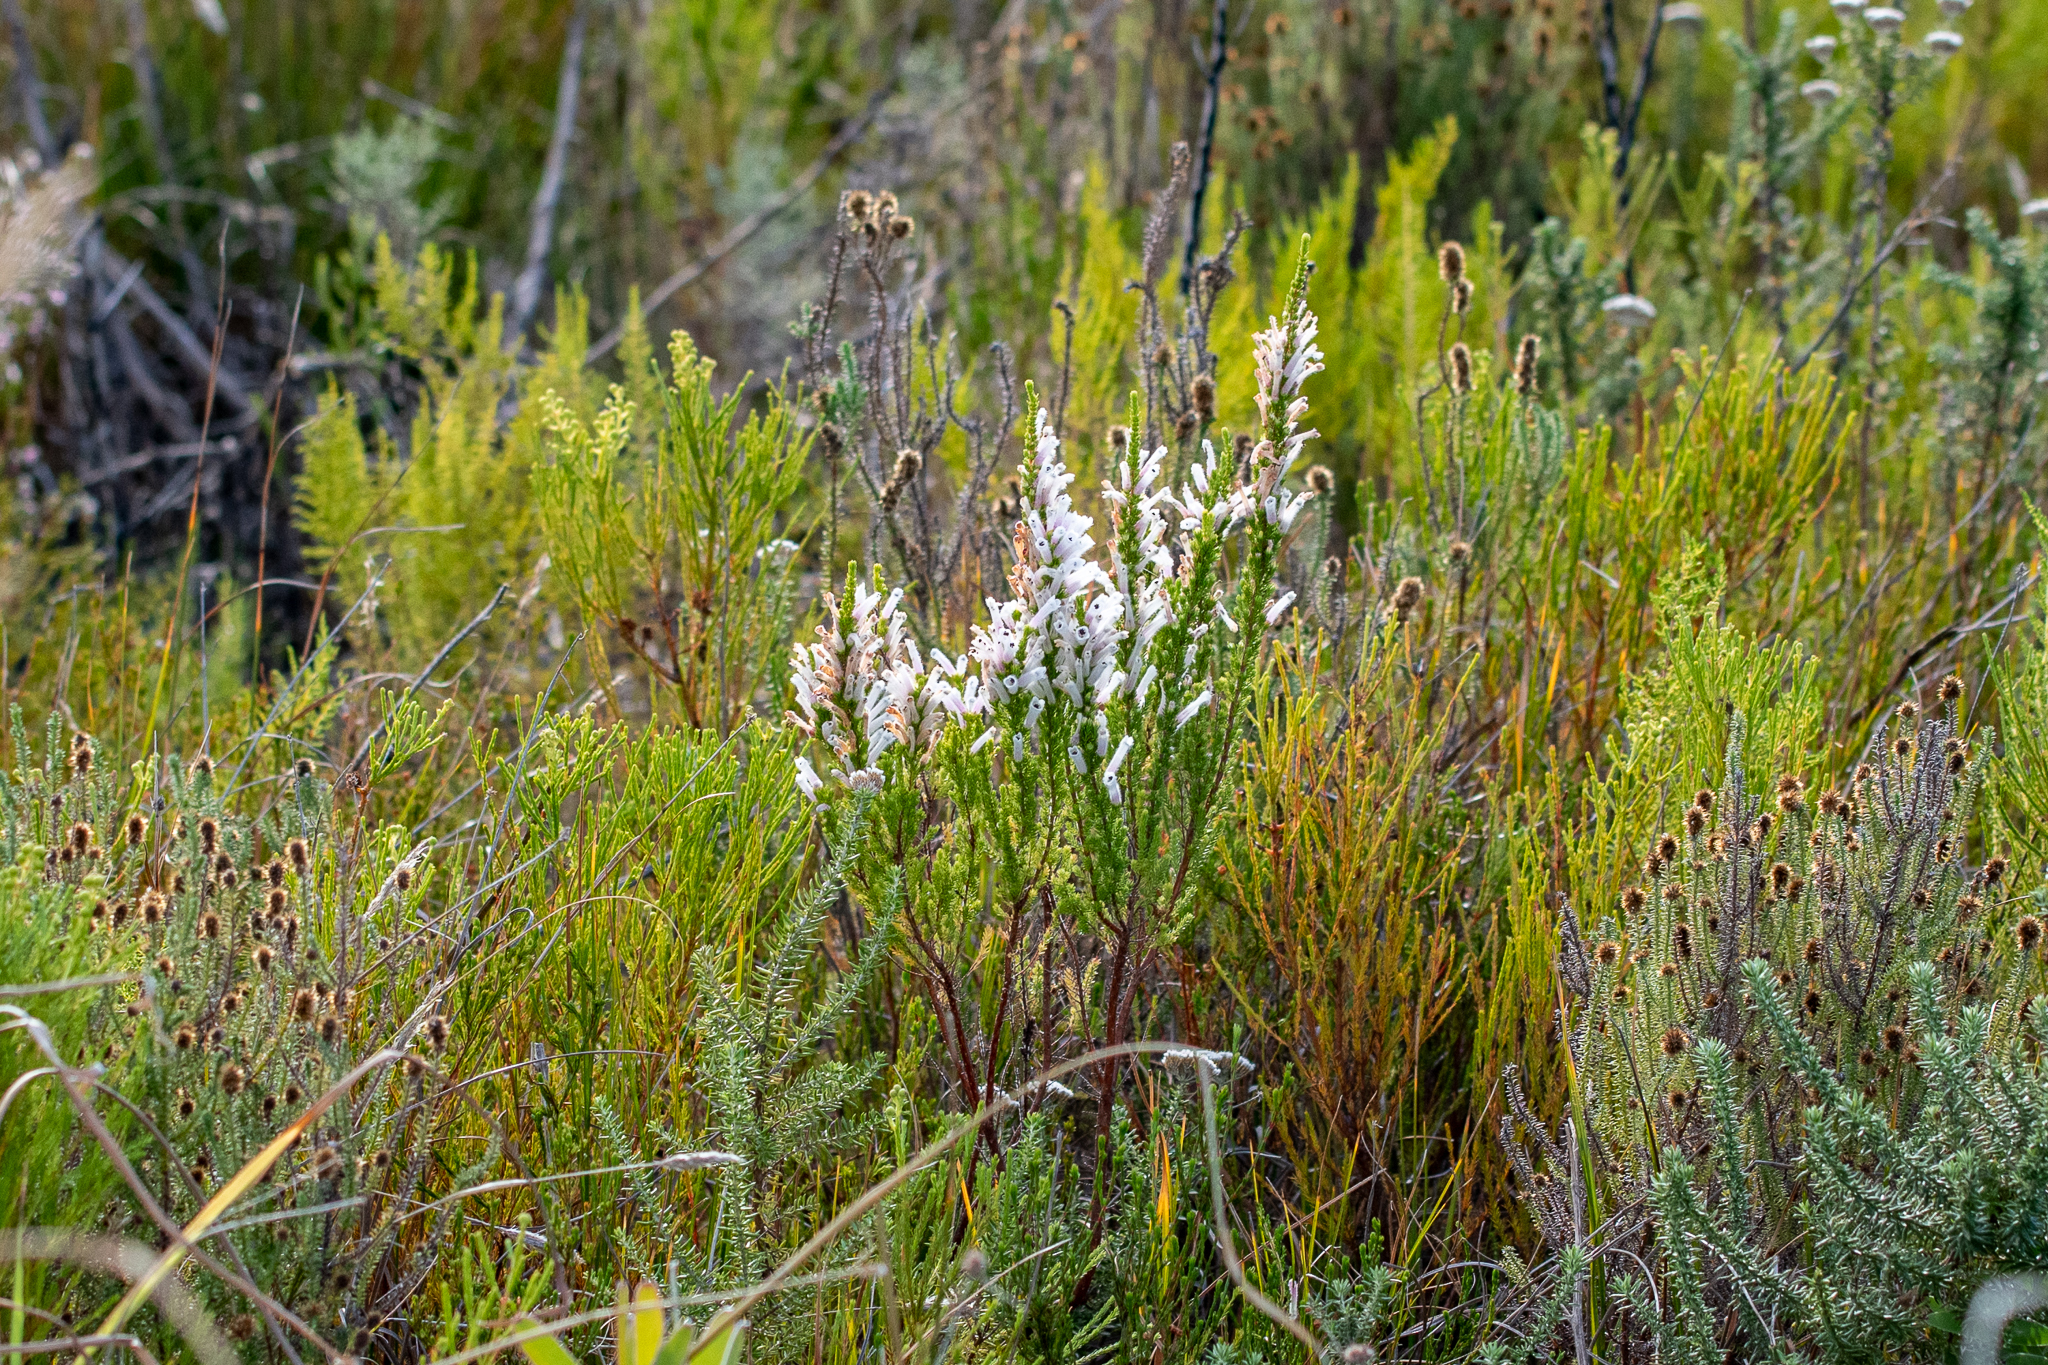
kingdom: Plantae
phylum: Tracheophyta
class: Magnoliopsida
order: Ericales
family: Ericaceae
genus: Erica
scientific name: Erica perspicua
